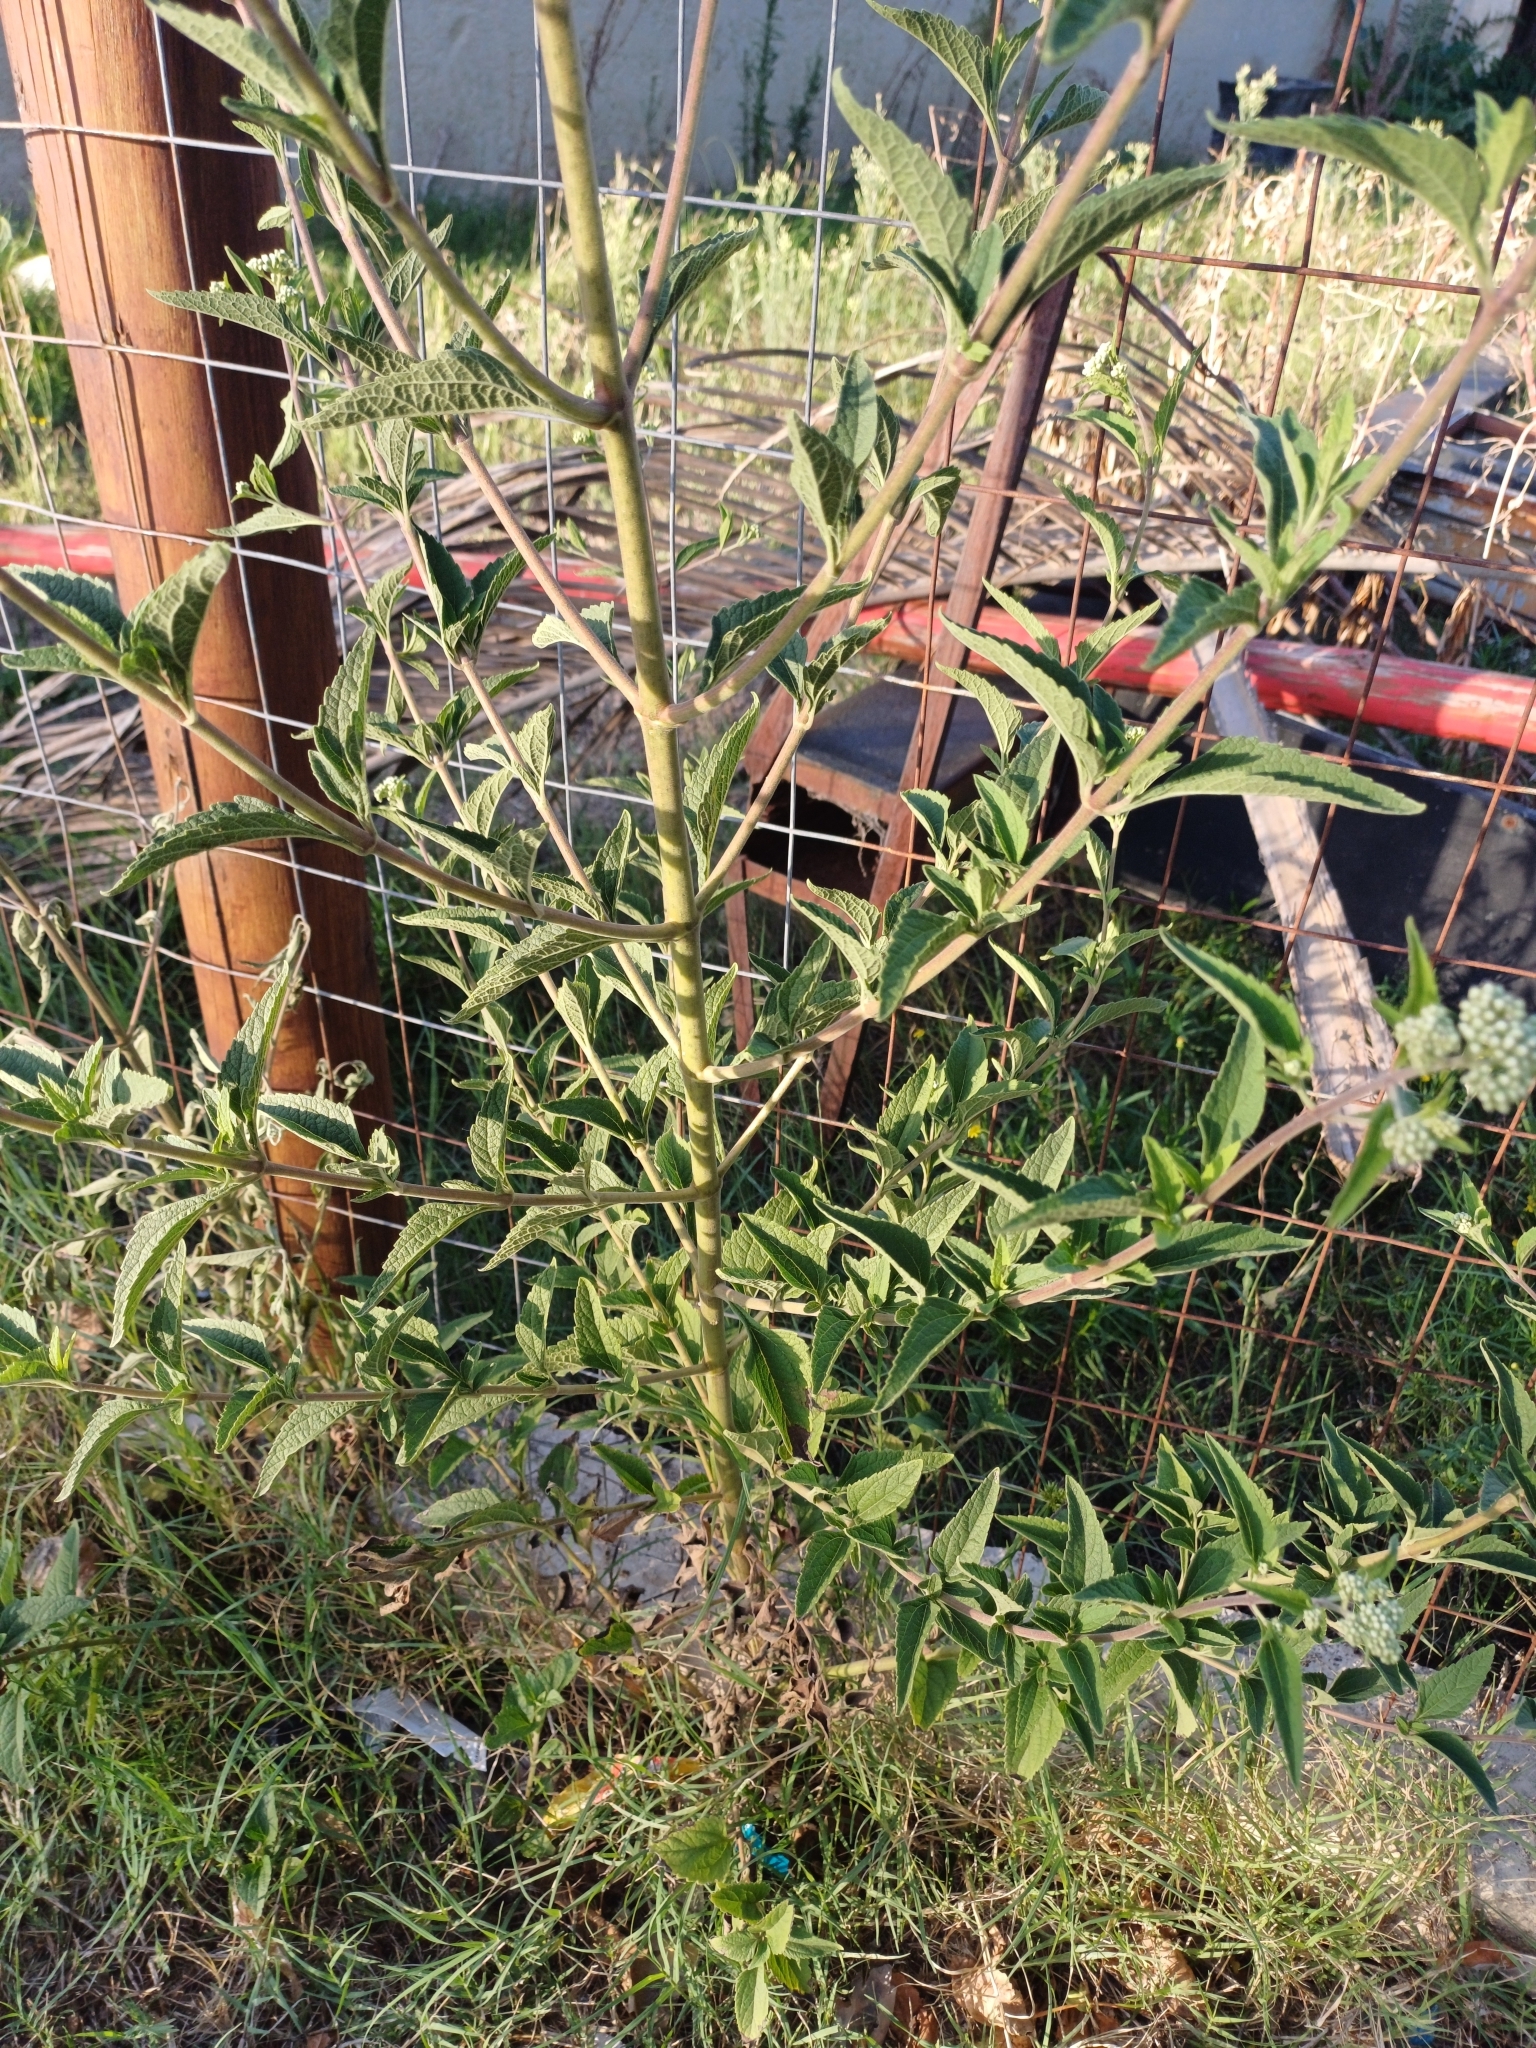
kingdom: Plantae
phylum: Tracheophyta
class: Magnoliopsida
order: Asterales
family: Asteraceae
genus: Austroeupatorium
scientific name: Austroeupatorium inulifolium
